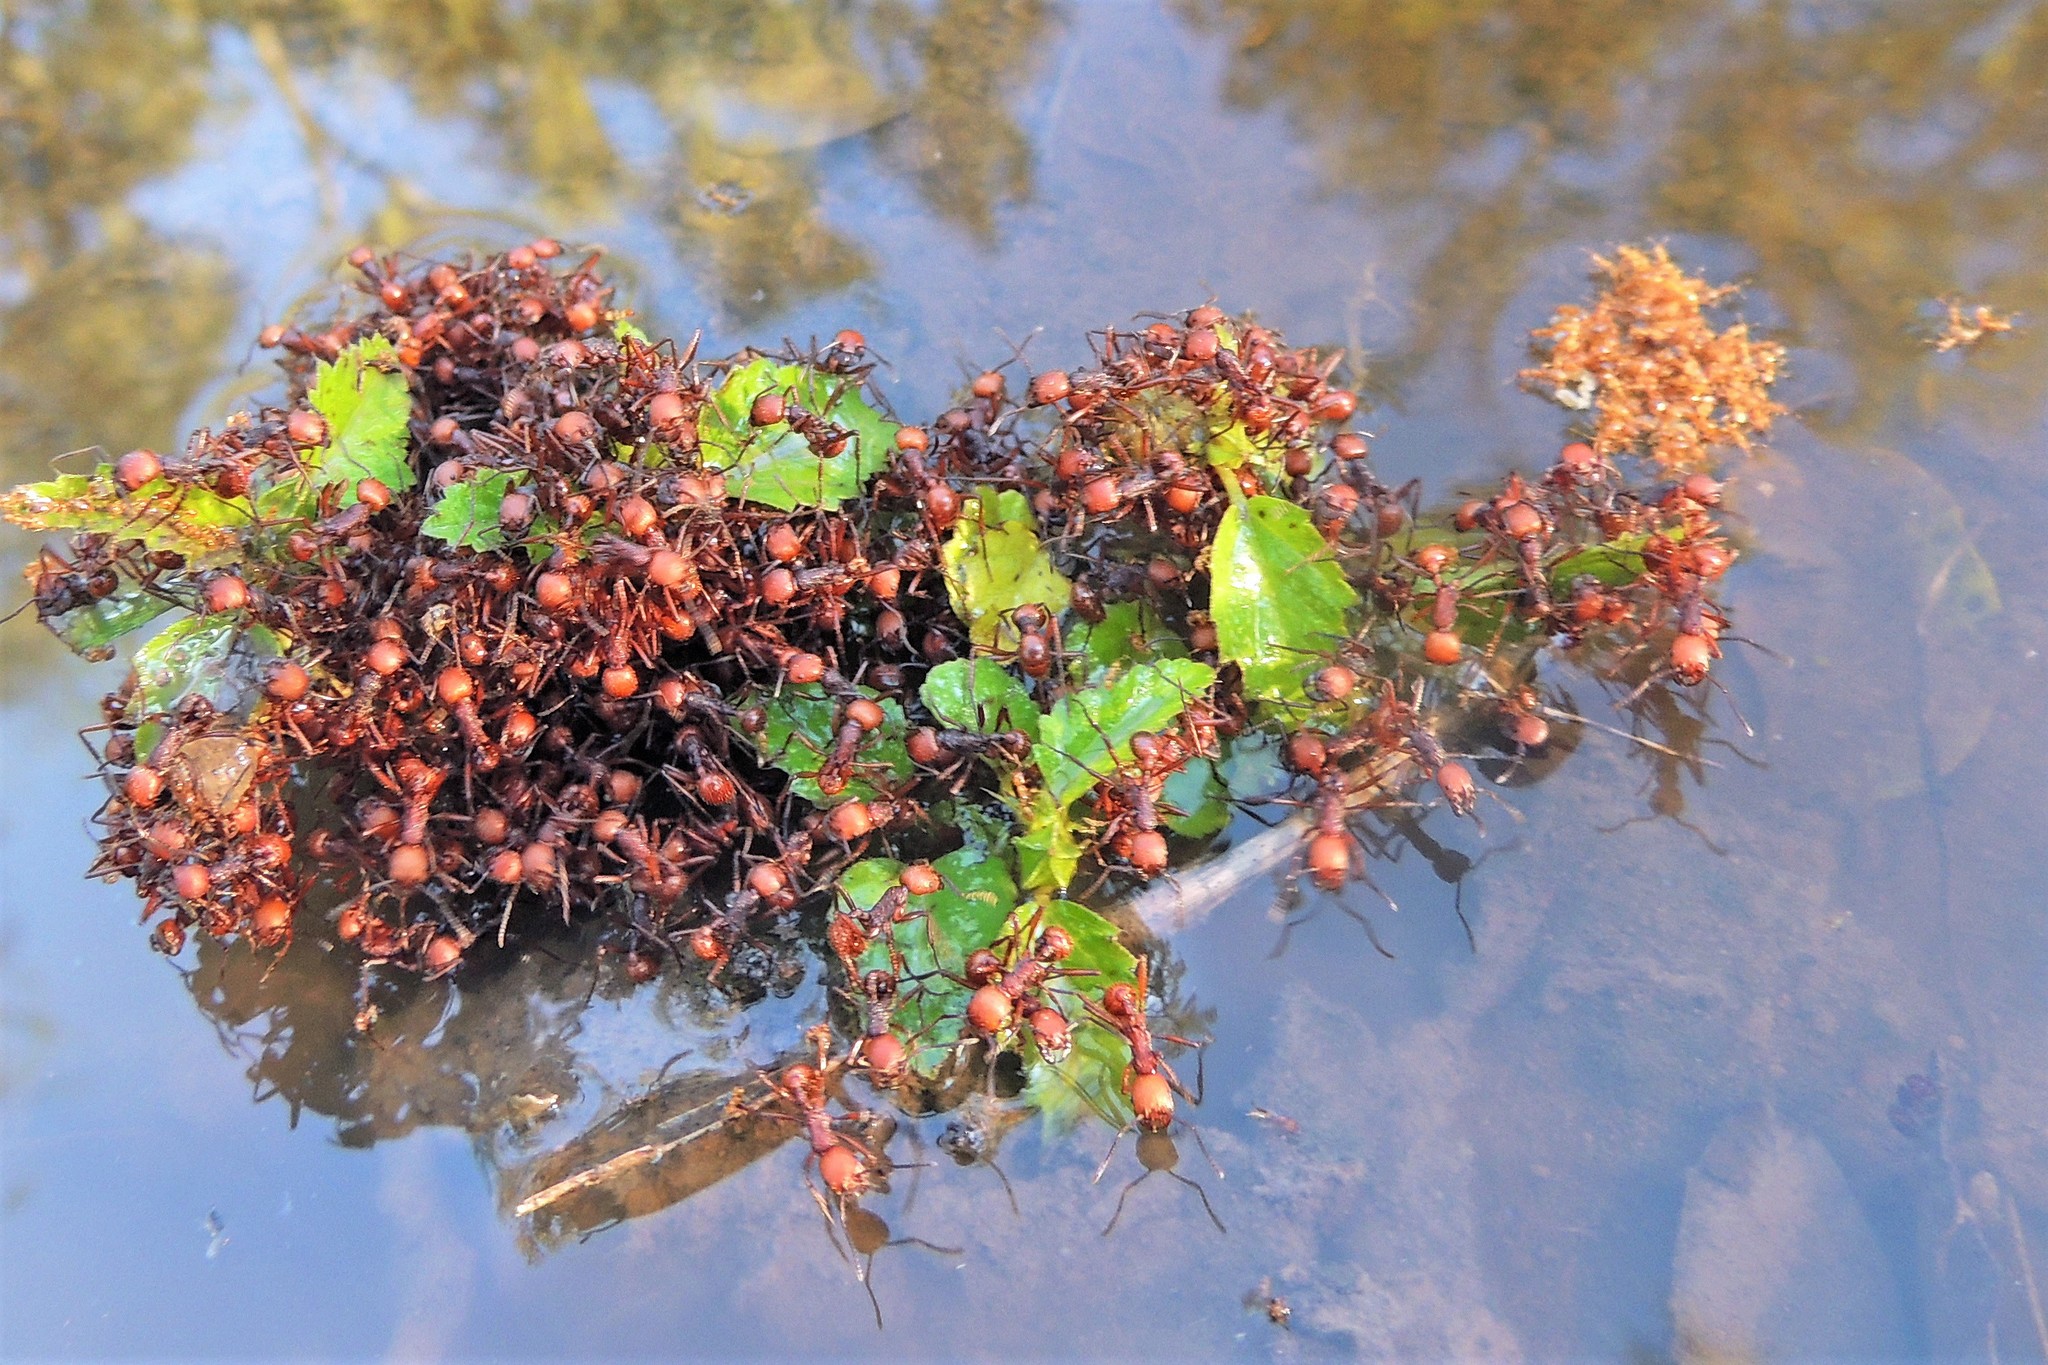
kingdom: Animalia
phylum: Arthropoda
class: Insecta
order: Hymenoptera
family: Formicidae
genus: Pogonomyrmex
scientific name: Pogonomyrmex serpens
